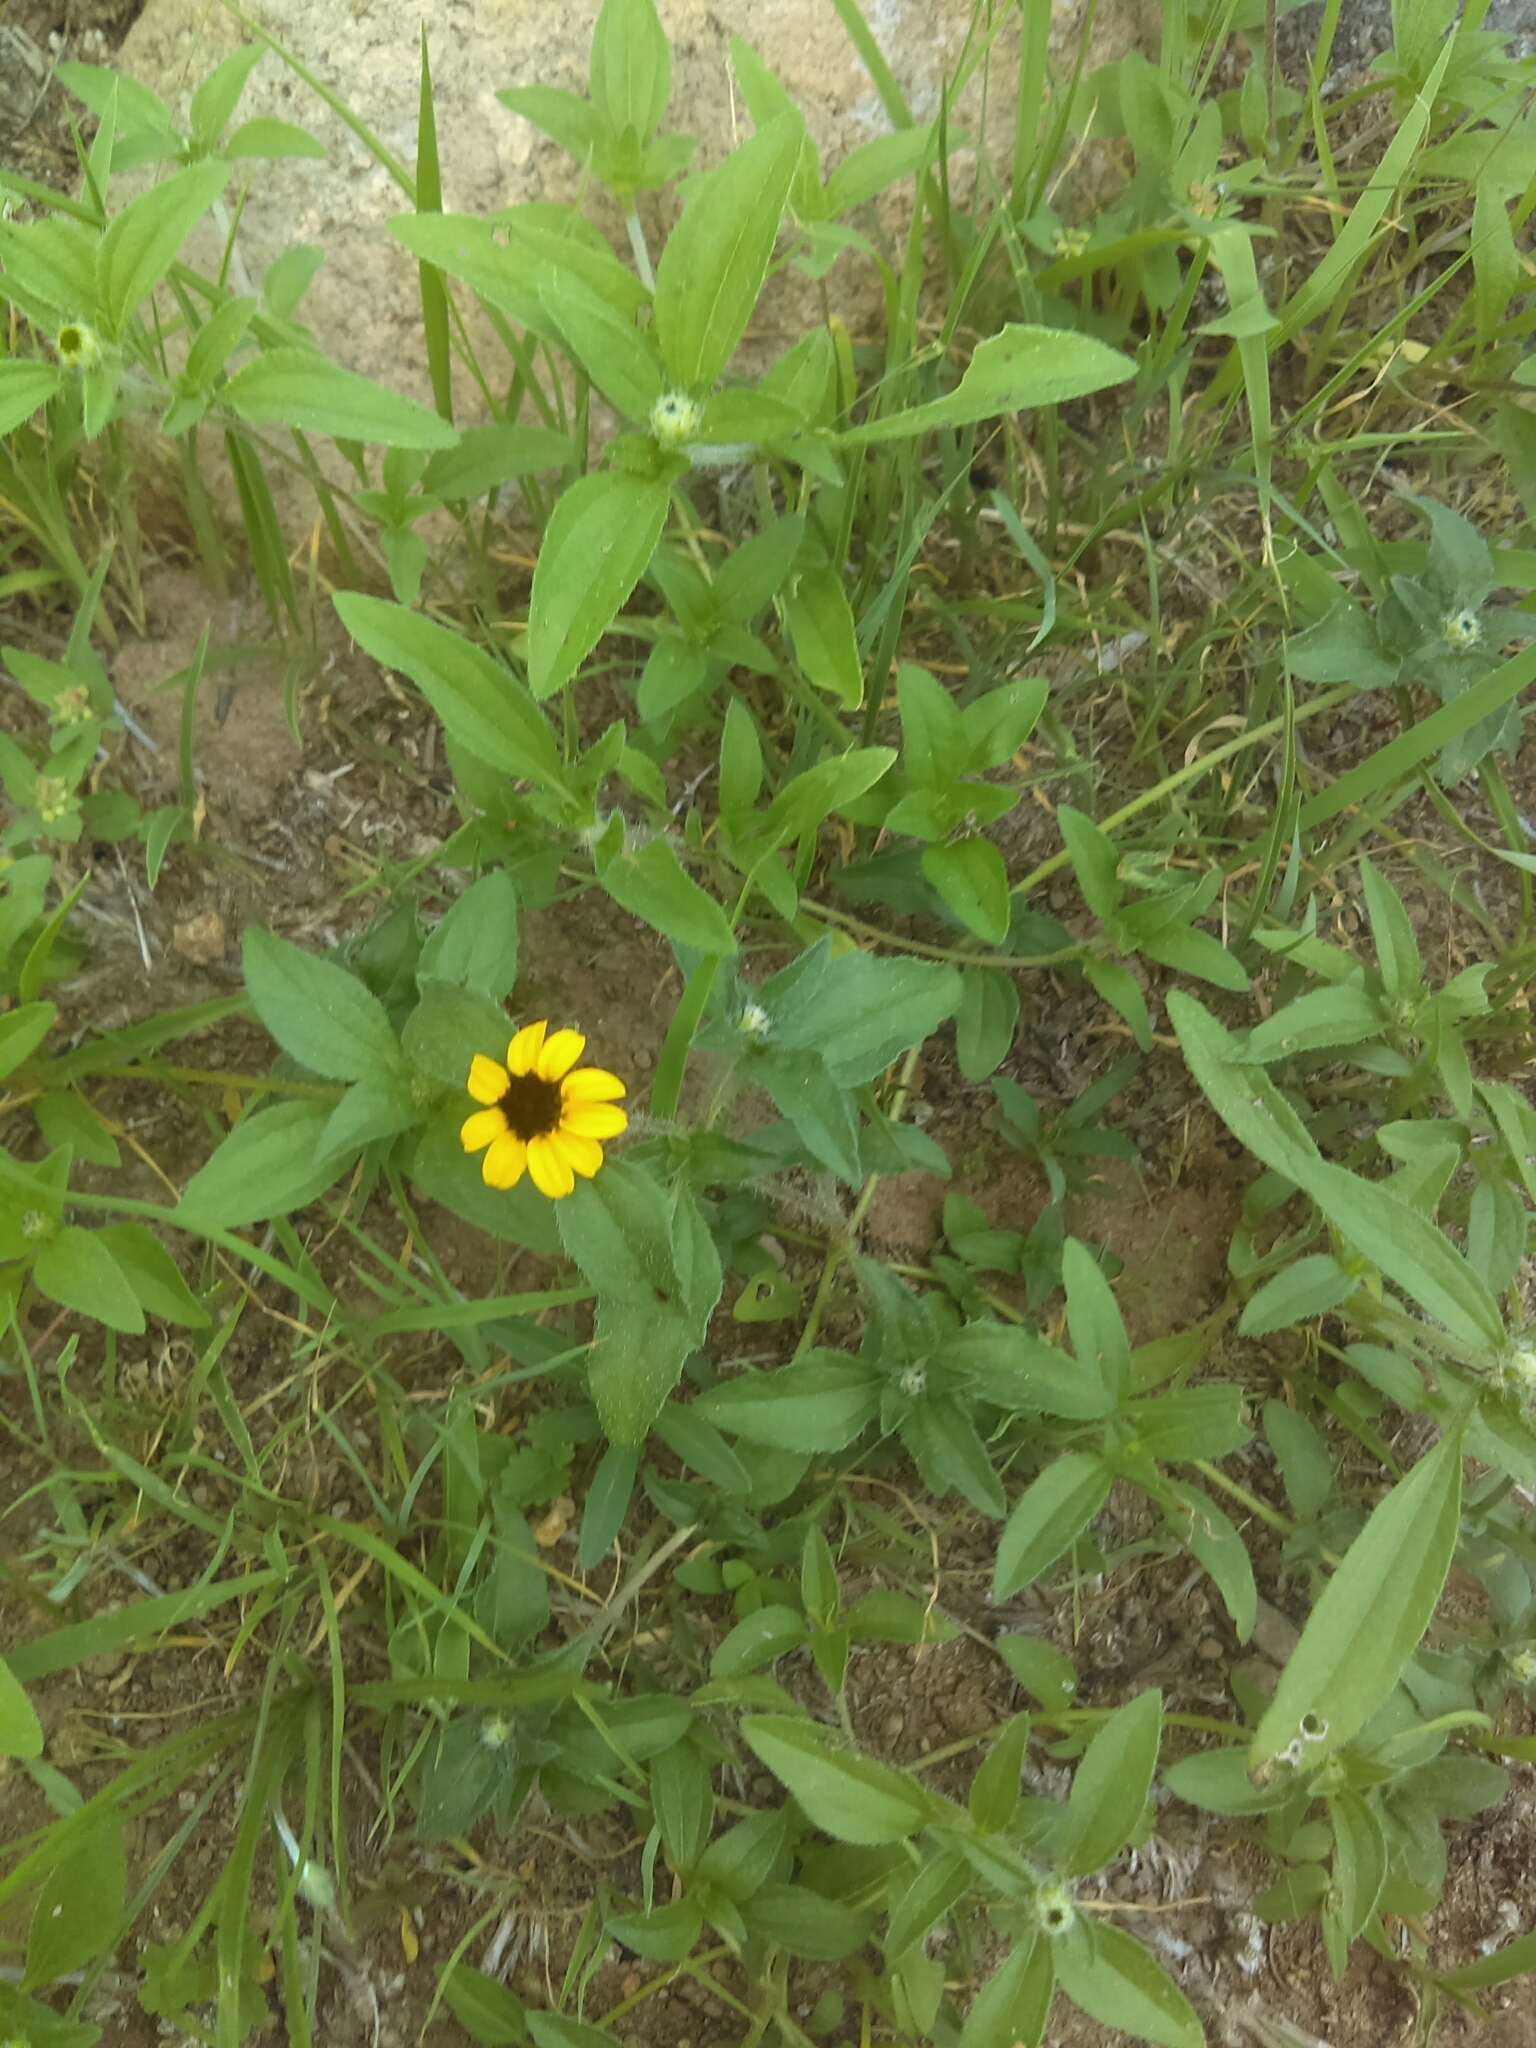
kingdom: Plantae
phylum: Tracheophyta
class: Magnoliopsida
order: Asterales
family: Asteraceae
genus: Sanvitalia
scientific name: Sanvitalia procumbens
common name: Mexican creeping zinnia
